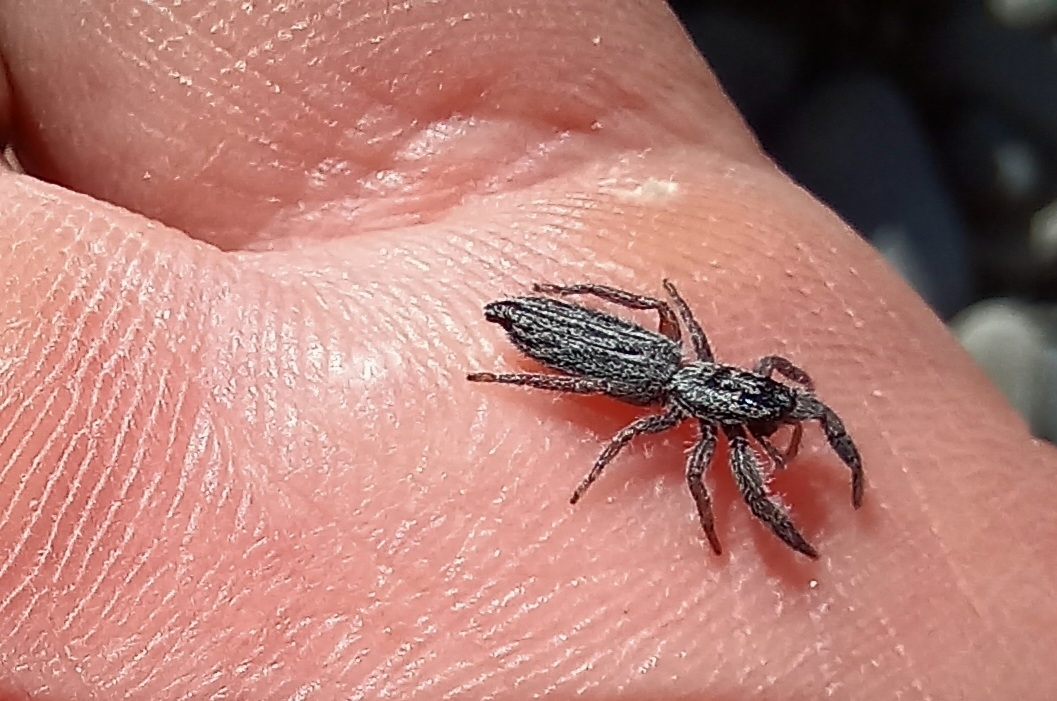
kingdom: Animalia
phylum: Arthropoda
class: Arachnida
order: Araneae
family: Salticidae
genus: Holoplatys
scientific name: Holoplatys apressus
